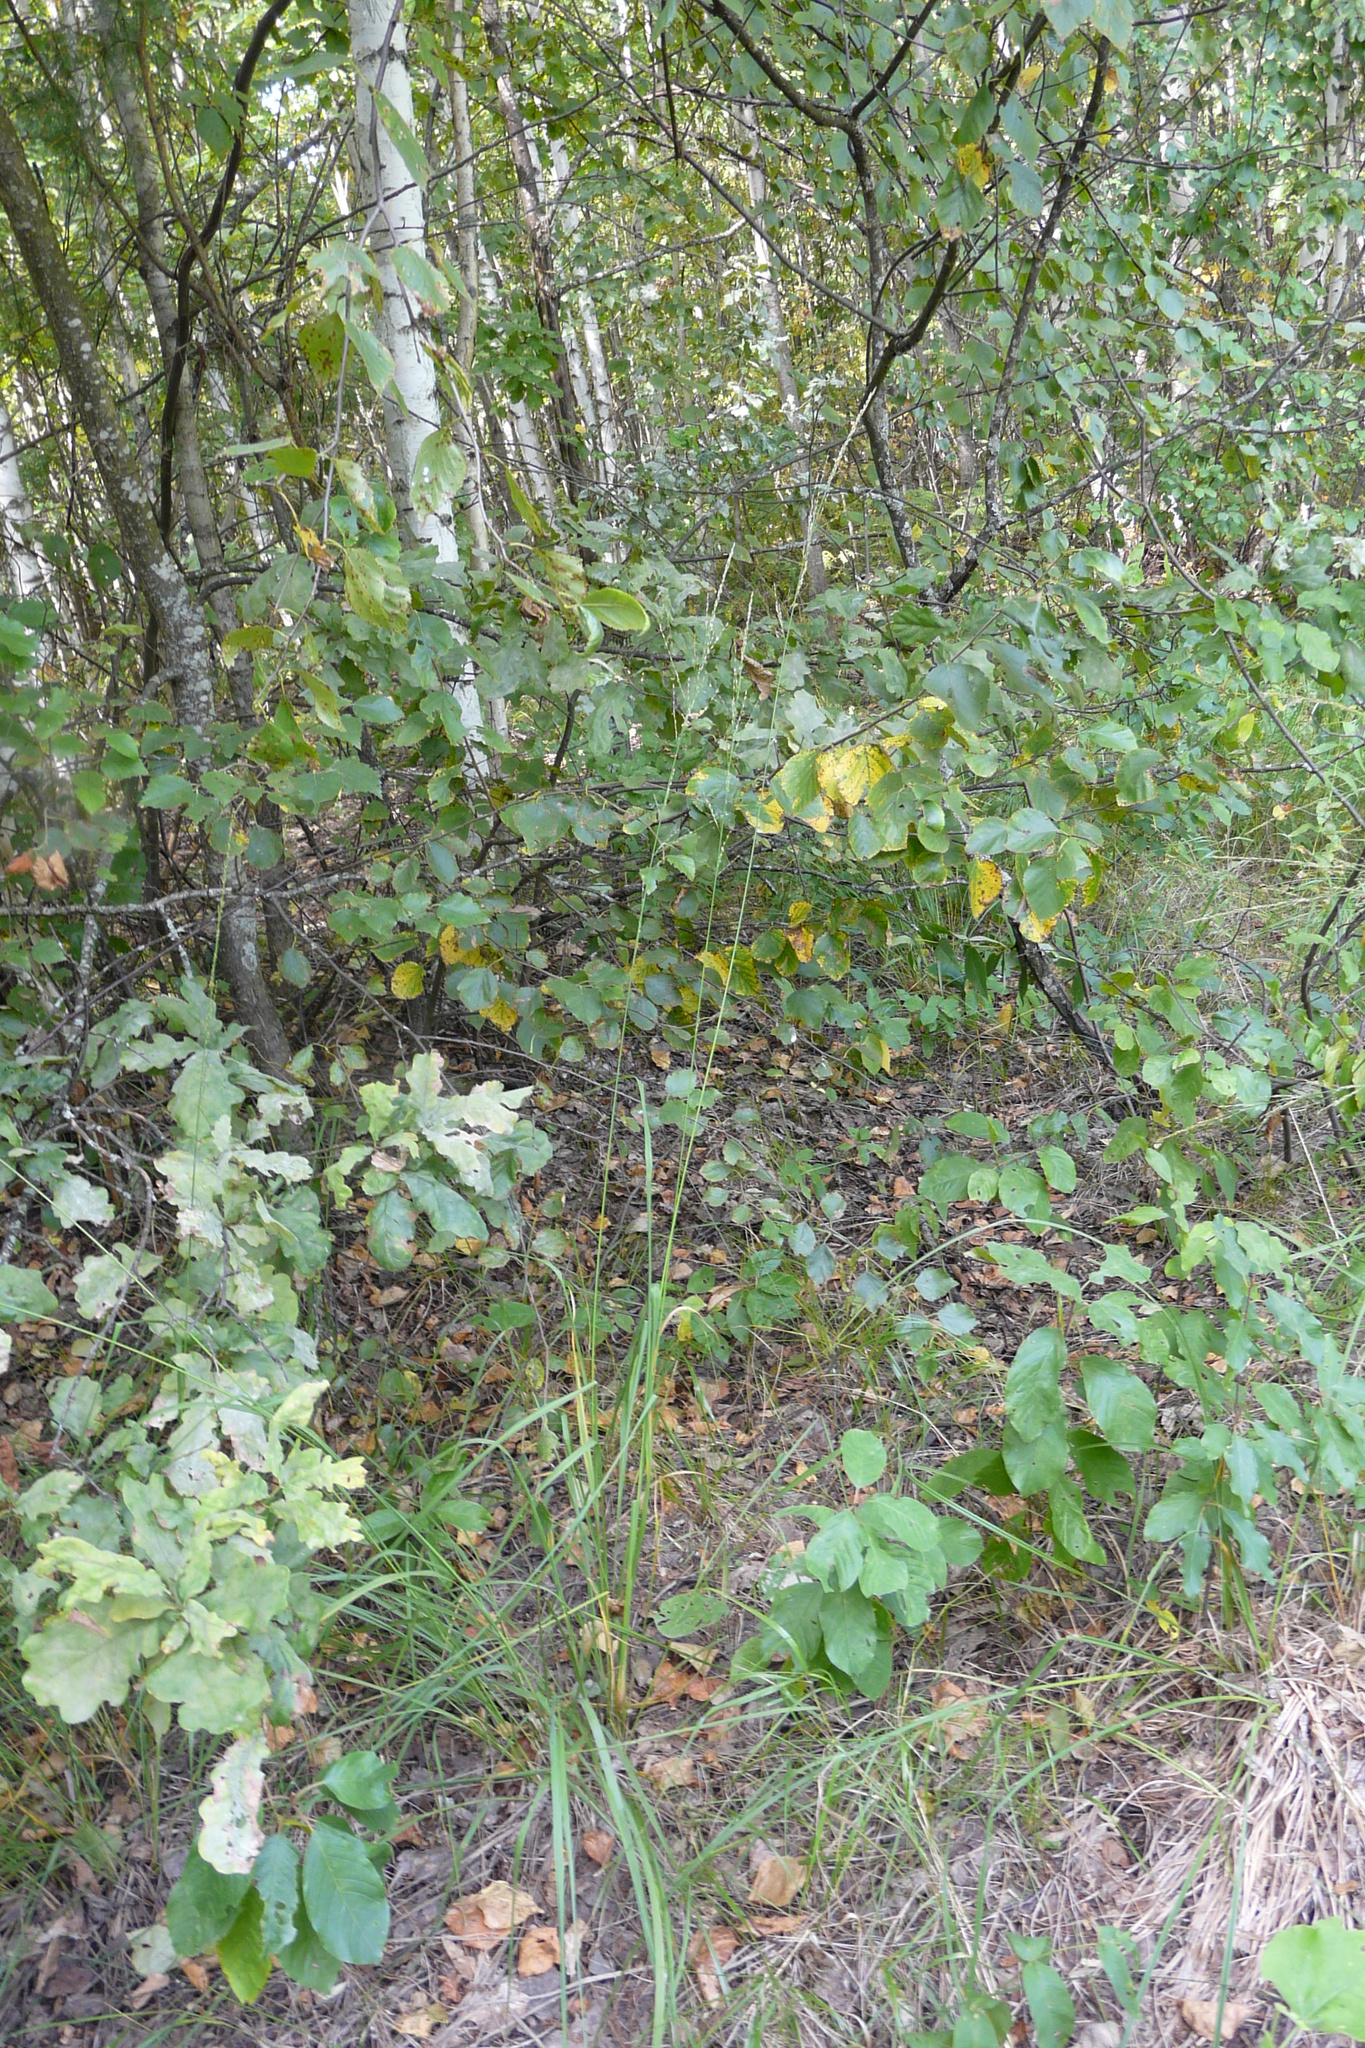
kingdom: Plantae
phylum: Tracheophyta
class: Liliopsida
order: Poales
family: Poaceae
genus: Molinia
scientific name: Molinia caerulea
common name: Purple moor-grass
